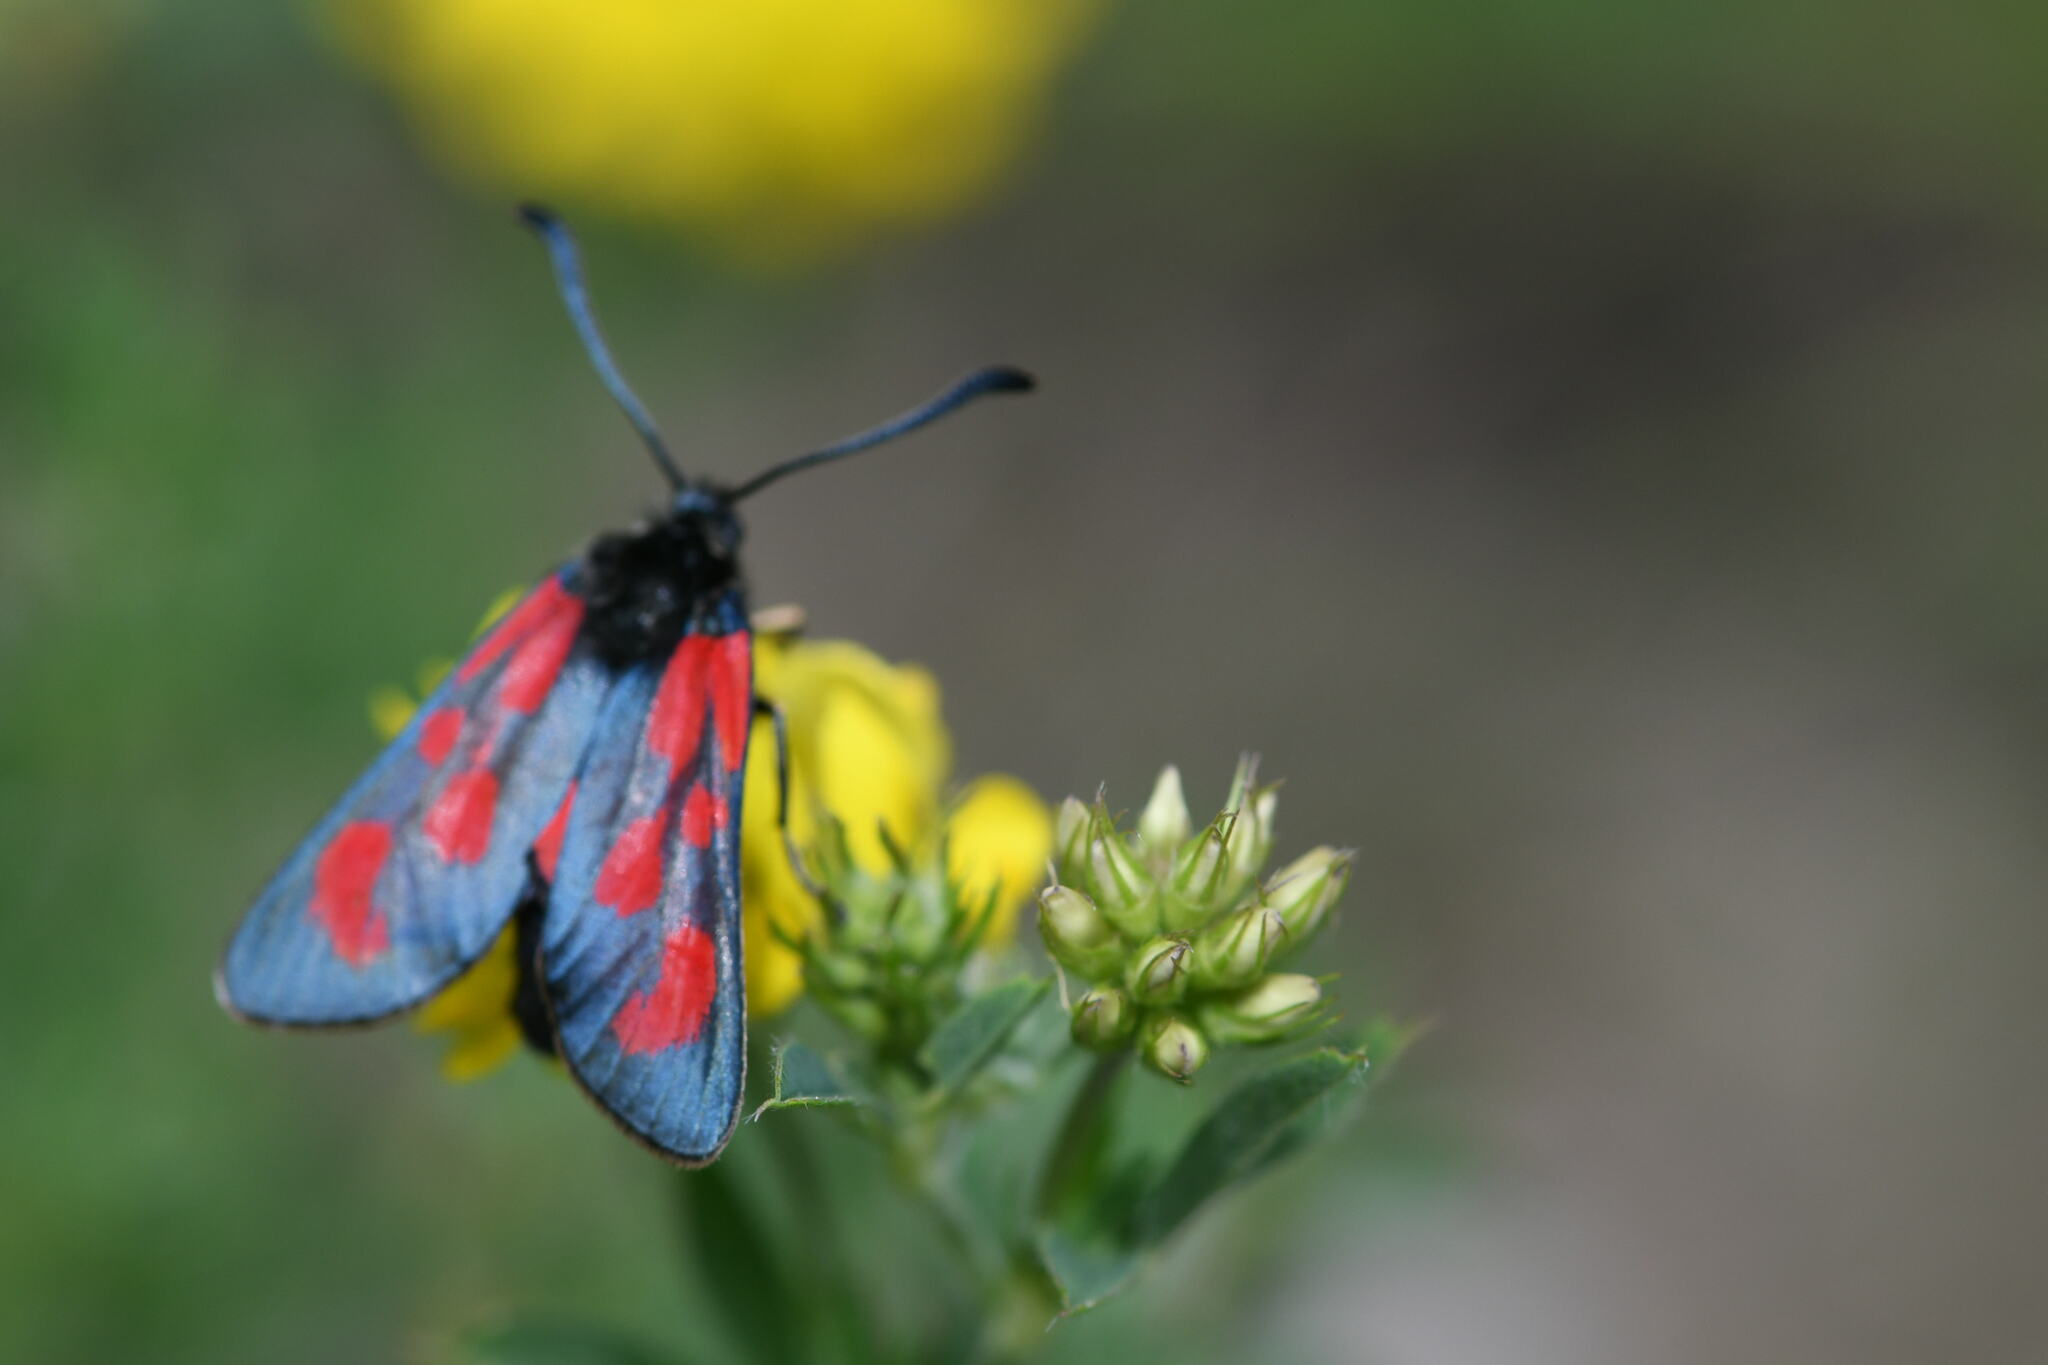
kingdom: Animalia
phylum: Arthropoda
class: Insecta
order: Lepidoptera
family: Zygaenidae
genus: Zygaena
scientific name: Zygaena loti
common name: Slender scotch burnet
